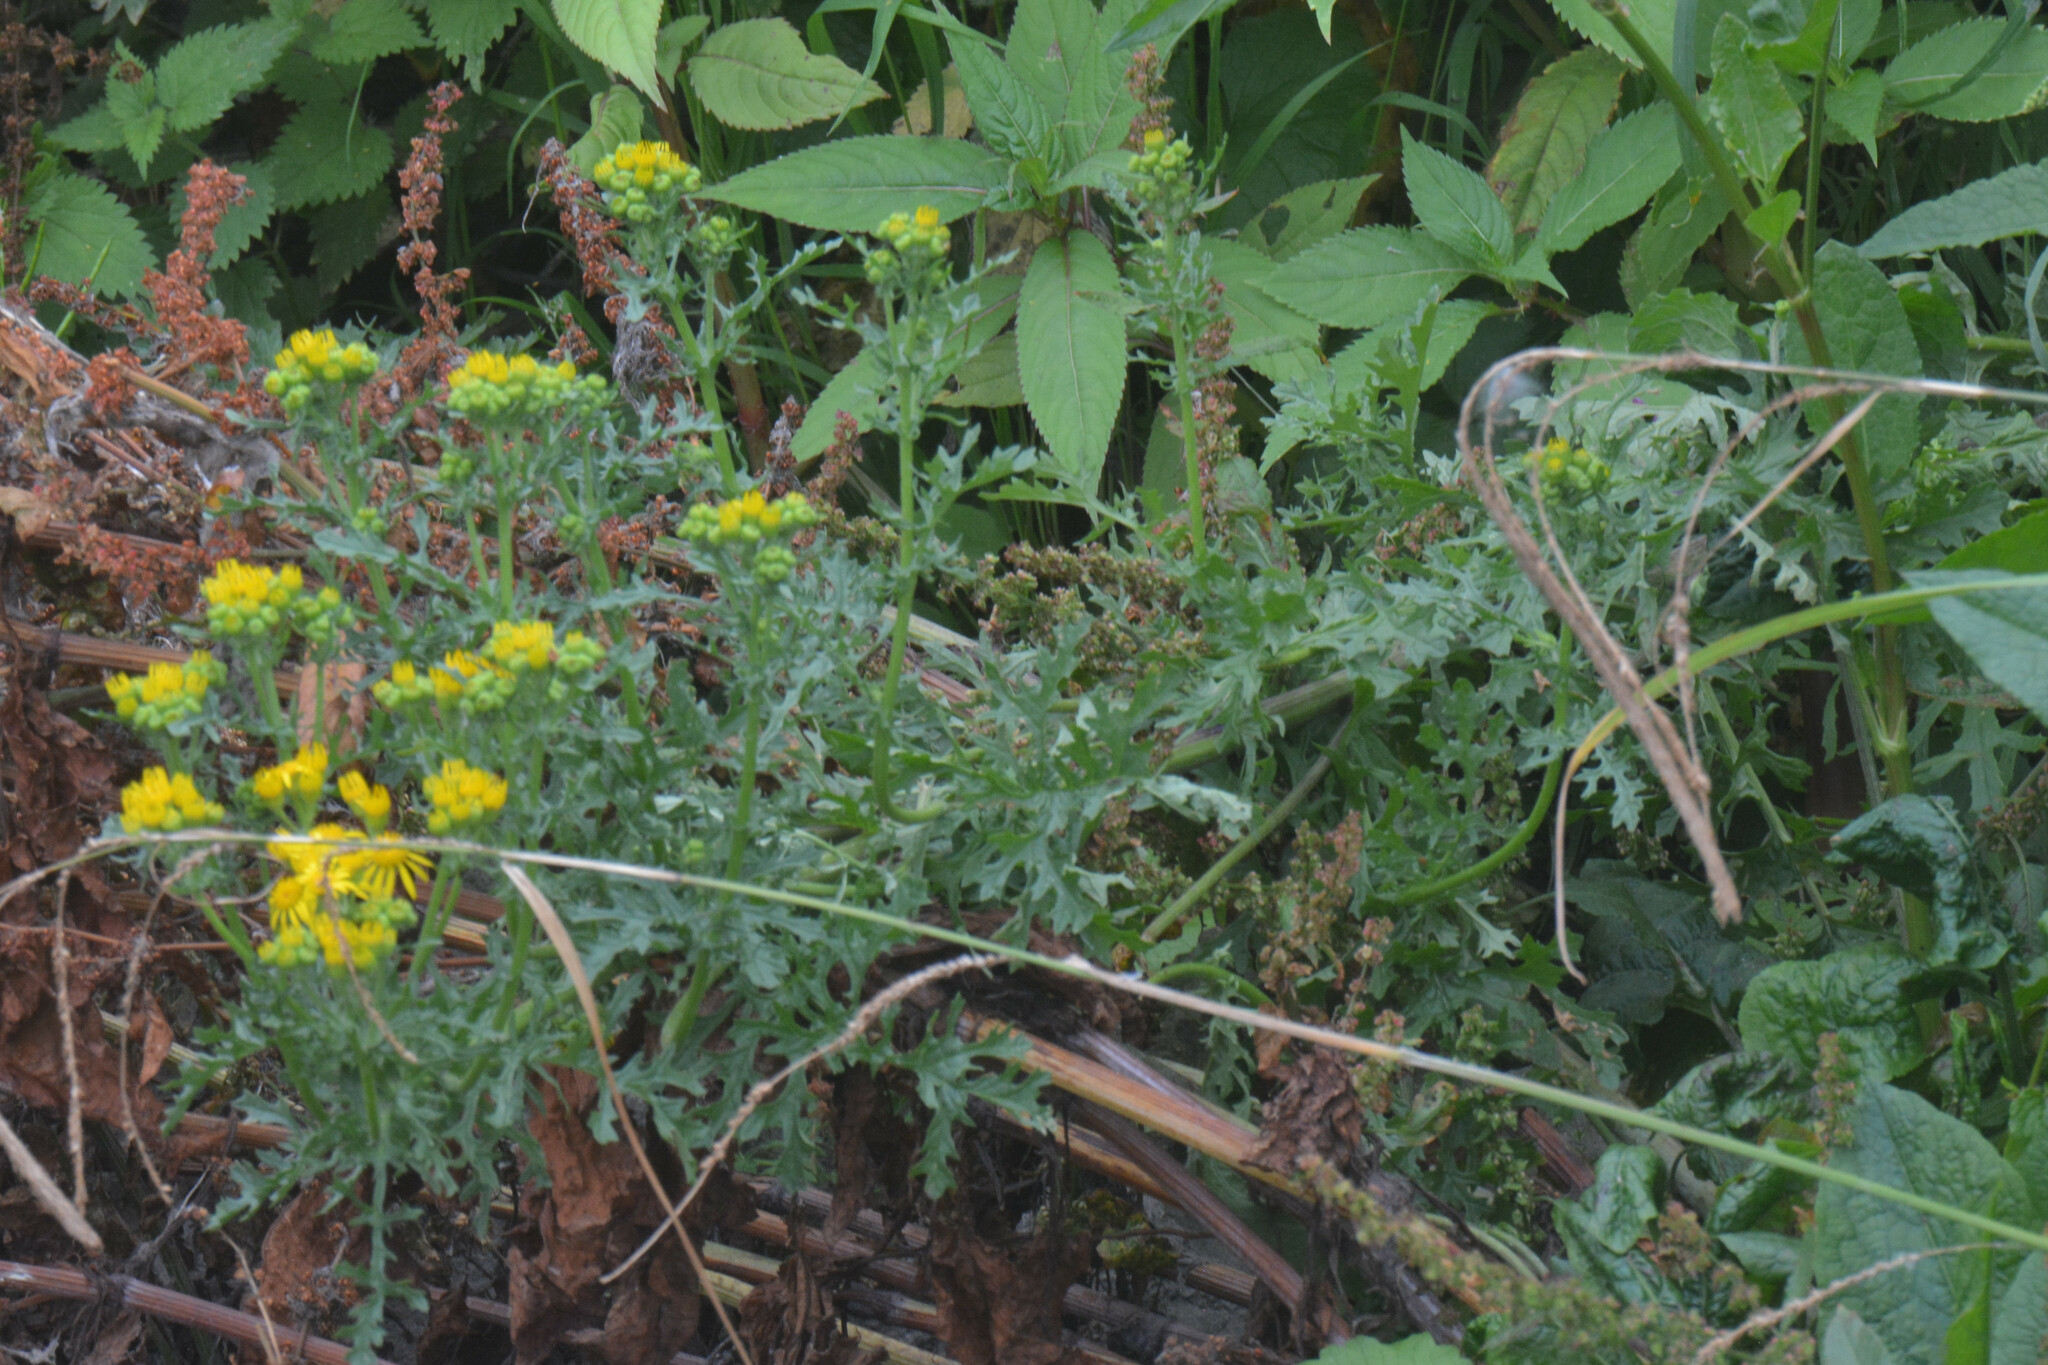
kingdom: Plantae
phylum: Tracheophyta
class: Magnoliopsida
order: Asterales
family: Asteraceae
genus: Jacobaea
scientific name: Jacobaea vulgaris
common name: Stinking willie
